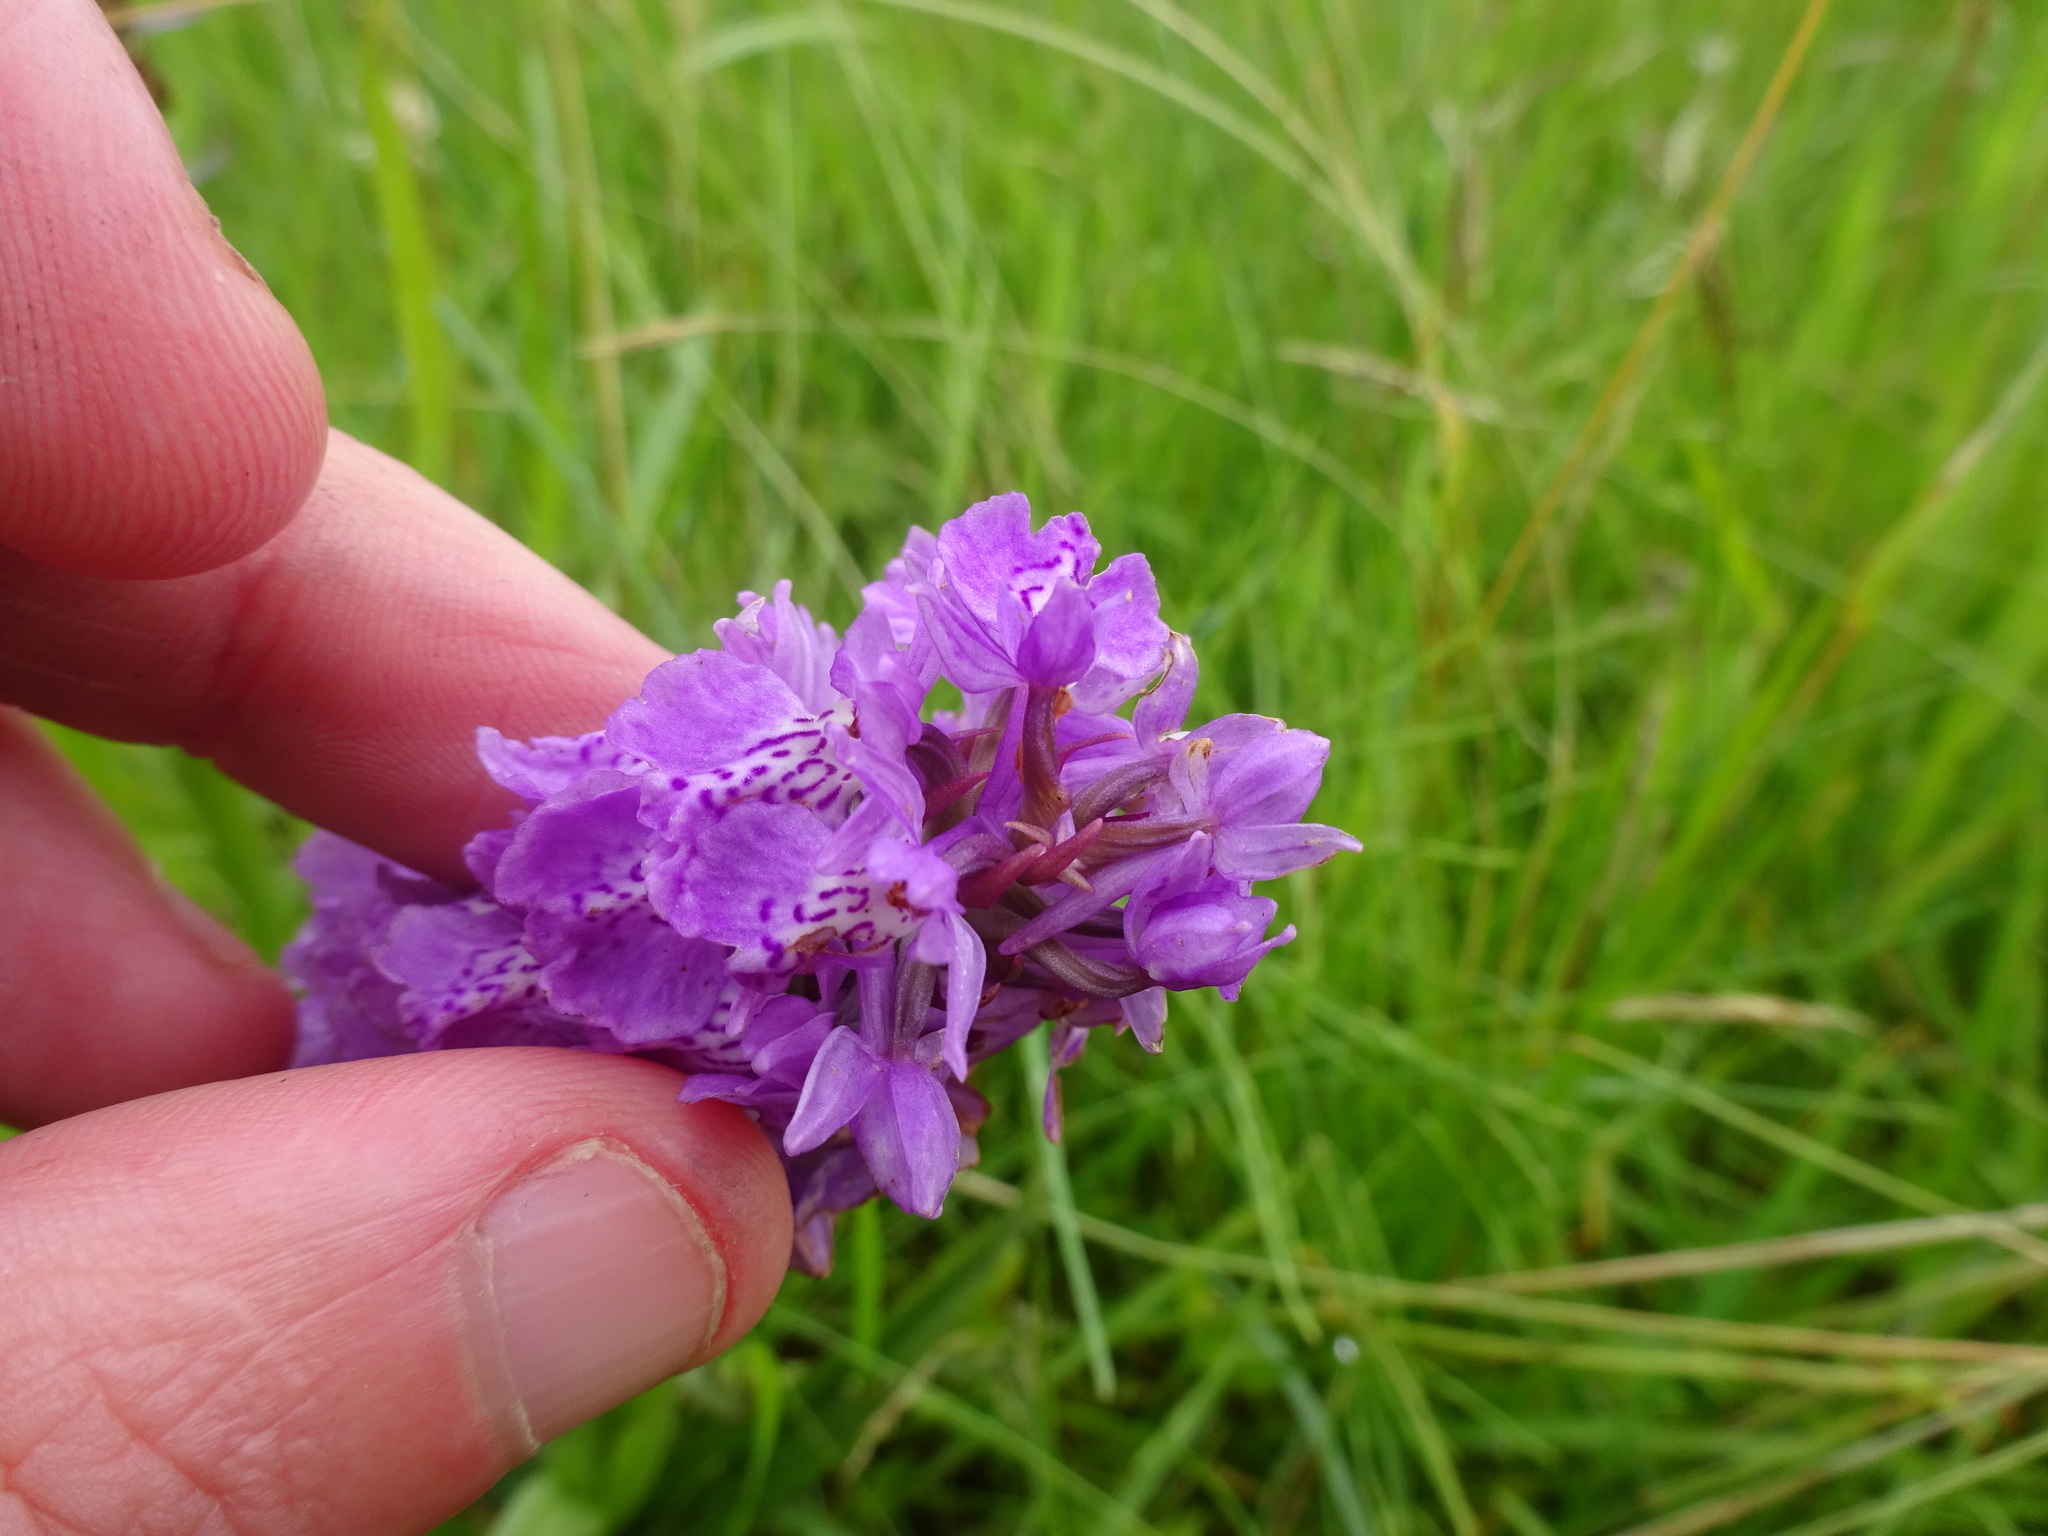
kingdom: Plantae
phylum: Tracheophyta
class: Liliopsida
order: Asparagales
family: Orchidaceae
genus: Dactylorhiza
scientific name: Dactylorhiza maculata
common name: Heath spotted-orchid
